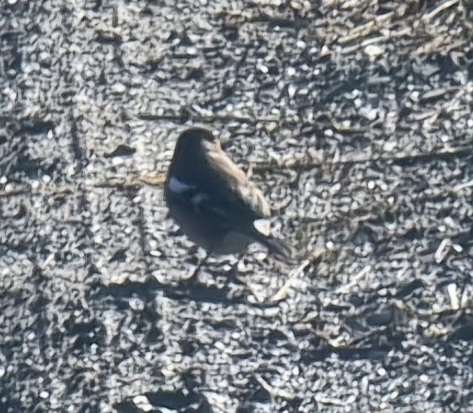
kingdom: Animalia
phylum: Chordata
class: Aves
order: Passeriformes
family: Fringillidae
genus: Fringilla
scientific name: Fringilla coelebs
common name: Common chaffinch
